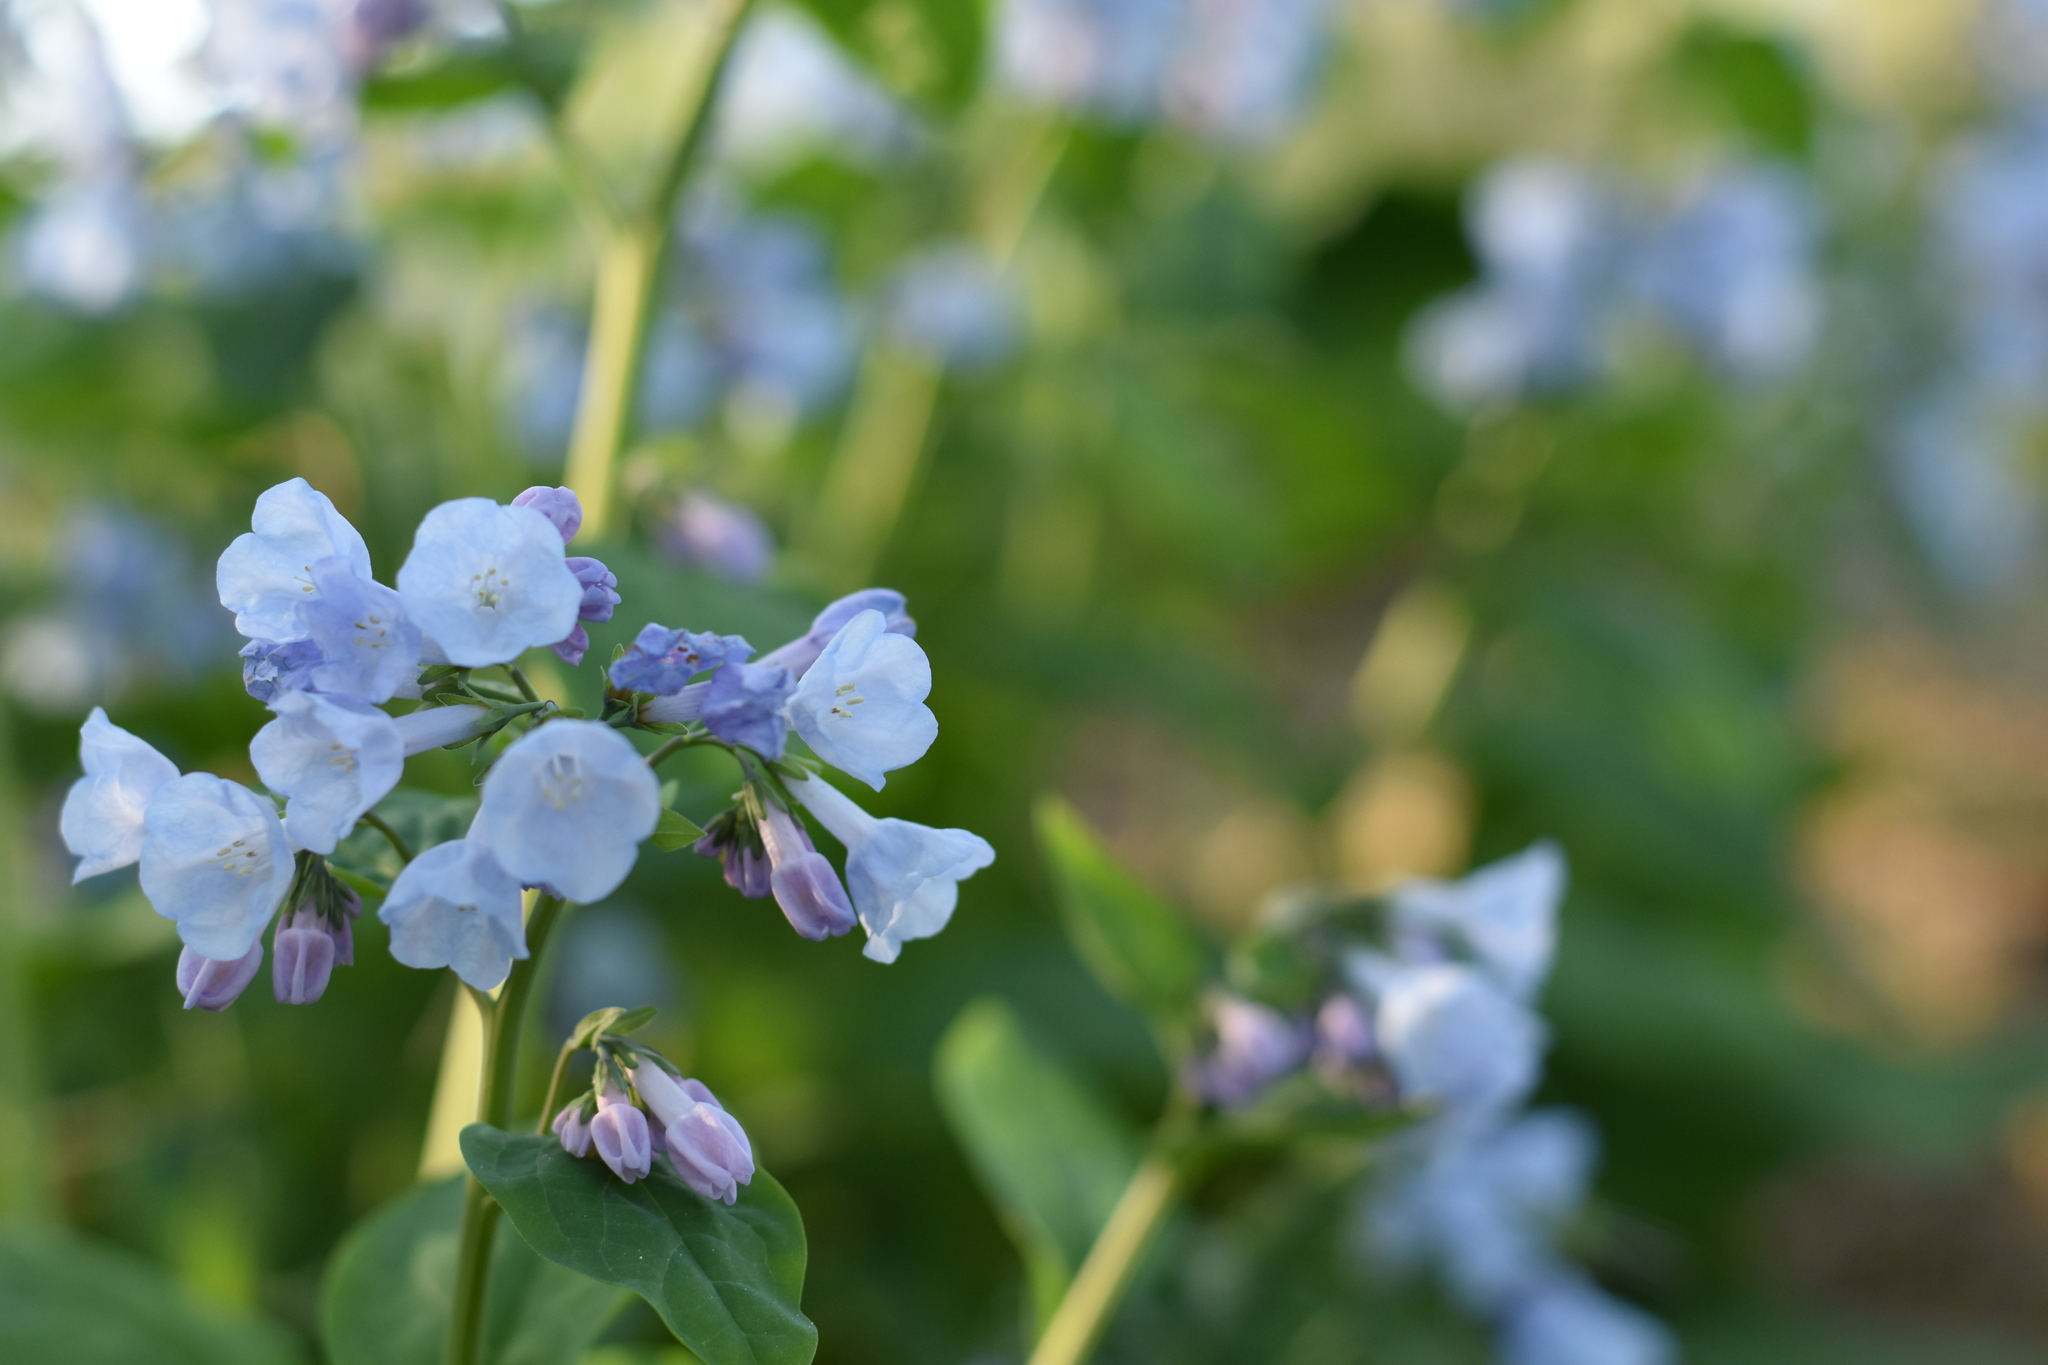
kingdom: Plantae
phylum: Tracheophyta
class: Magnoliopsida
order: Boraginales
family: Boraginaceae
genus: Mertensia
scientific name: Mertensia virginica
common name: Virginia bluebells
